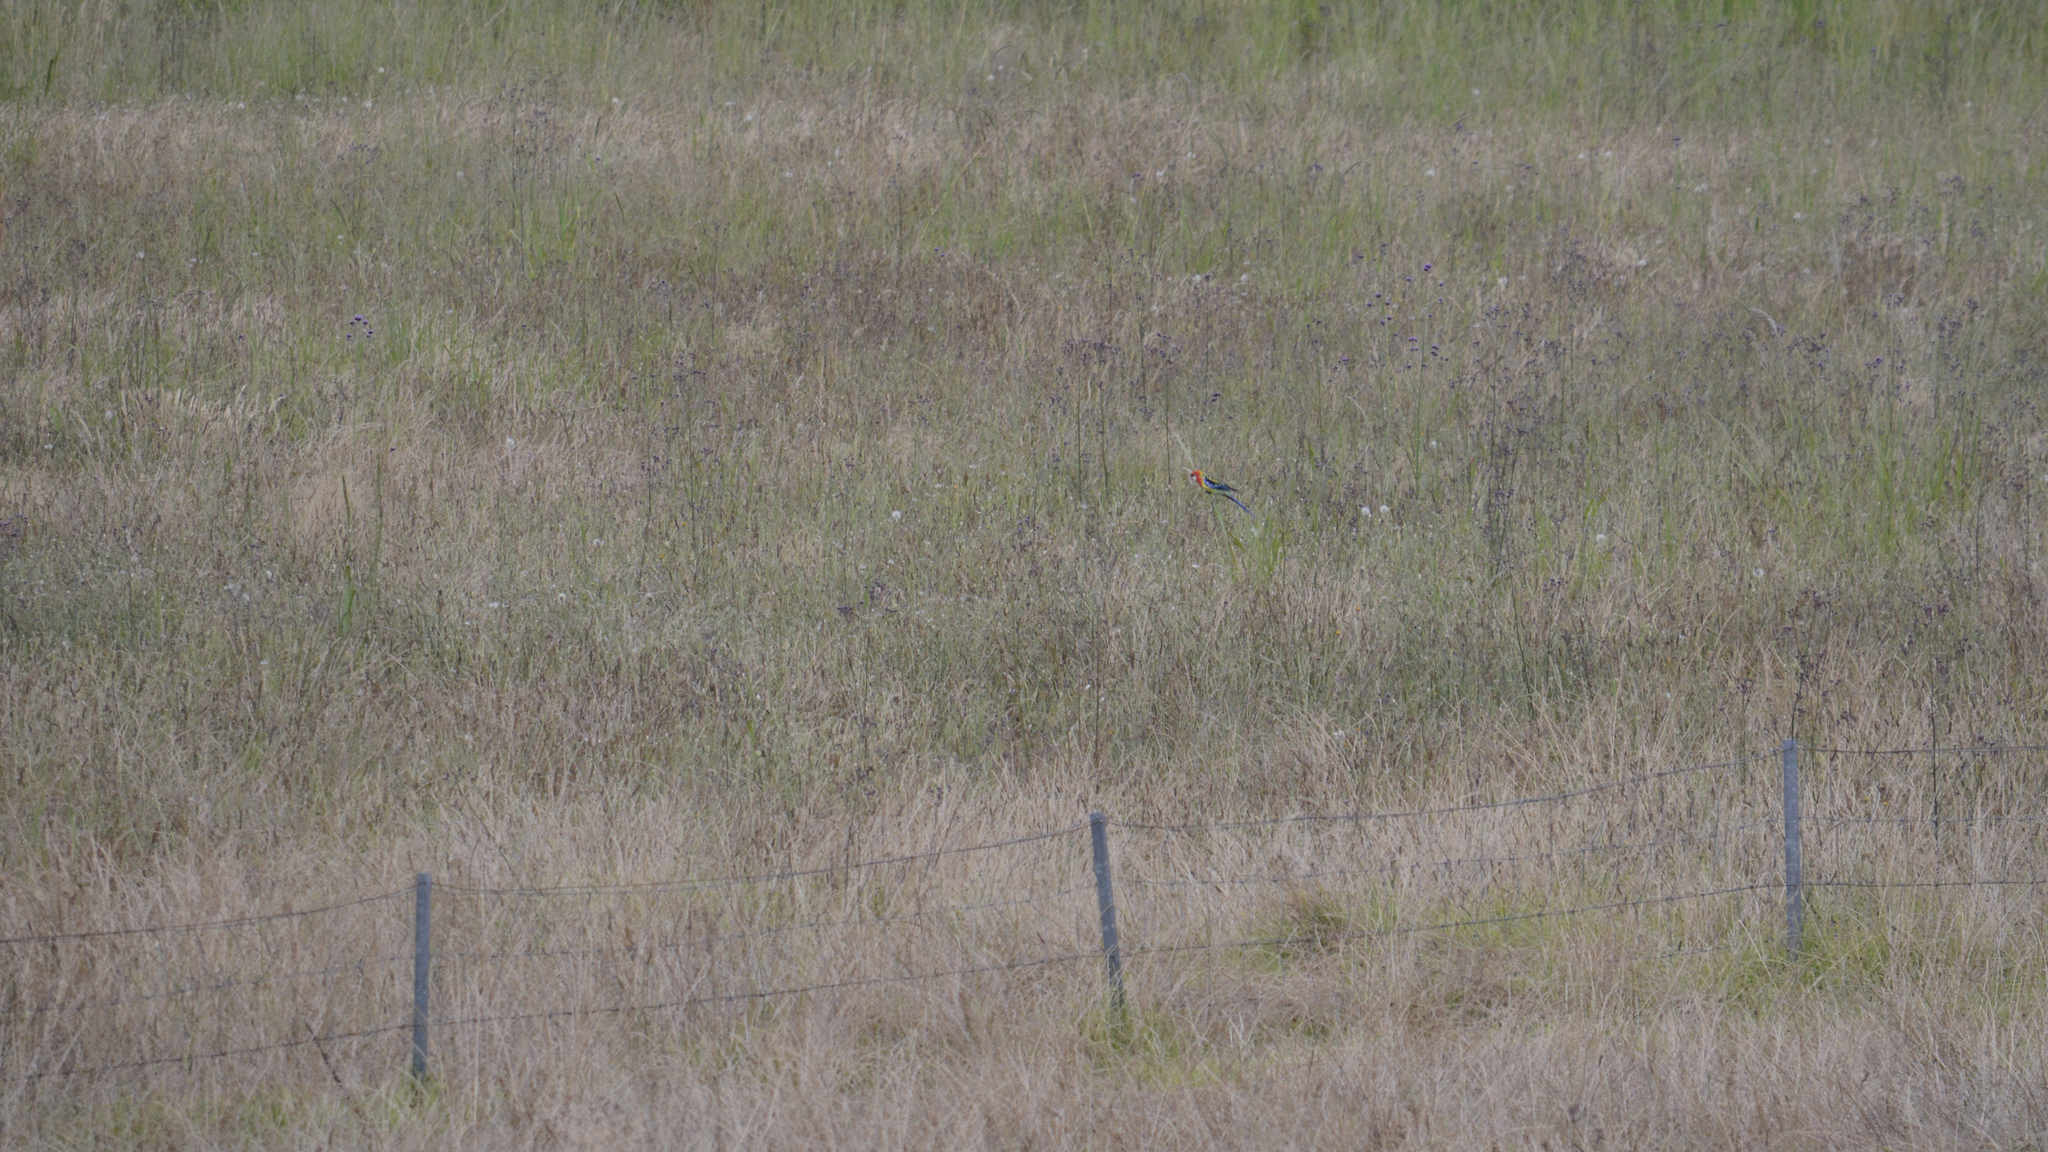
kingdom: Animalia
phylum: Chordata
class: Aves
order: Psittaciformes
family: Psittacidae
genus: Platycercus
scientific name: Platycercus eximius
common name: Eastern rosella
